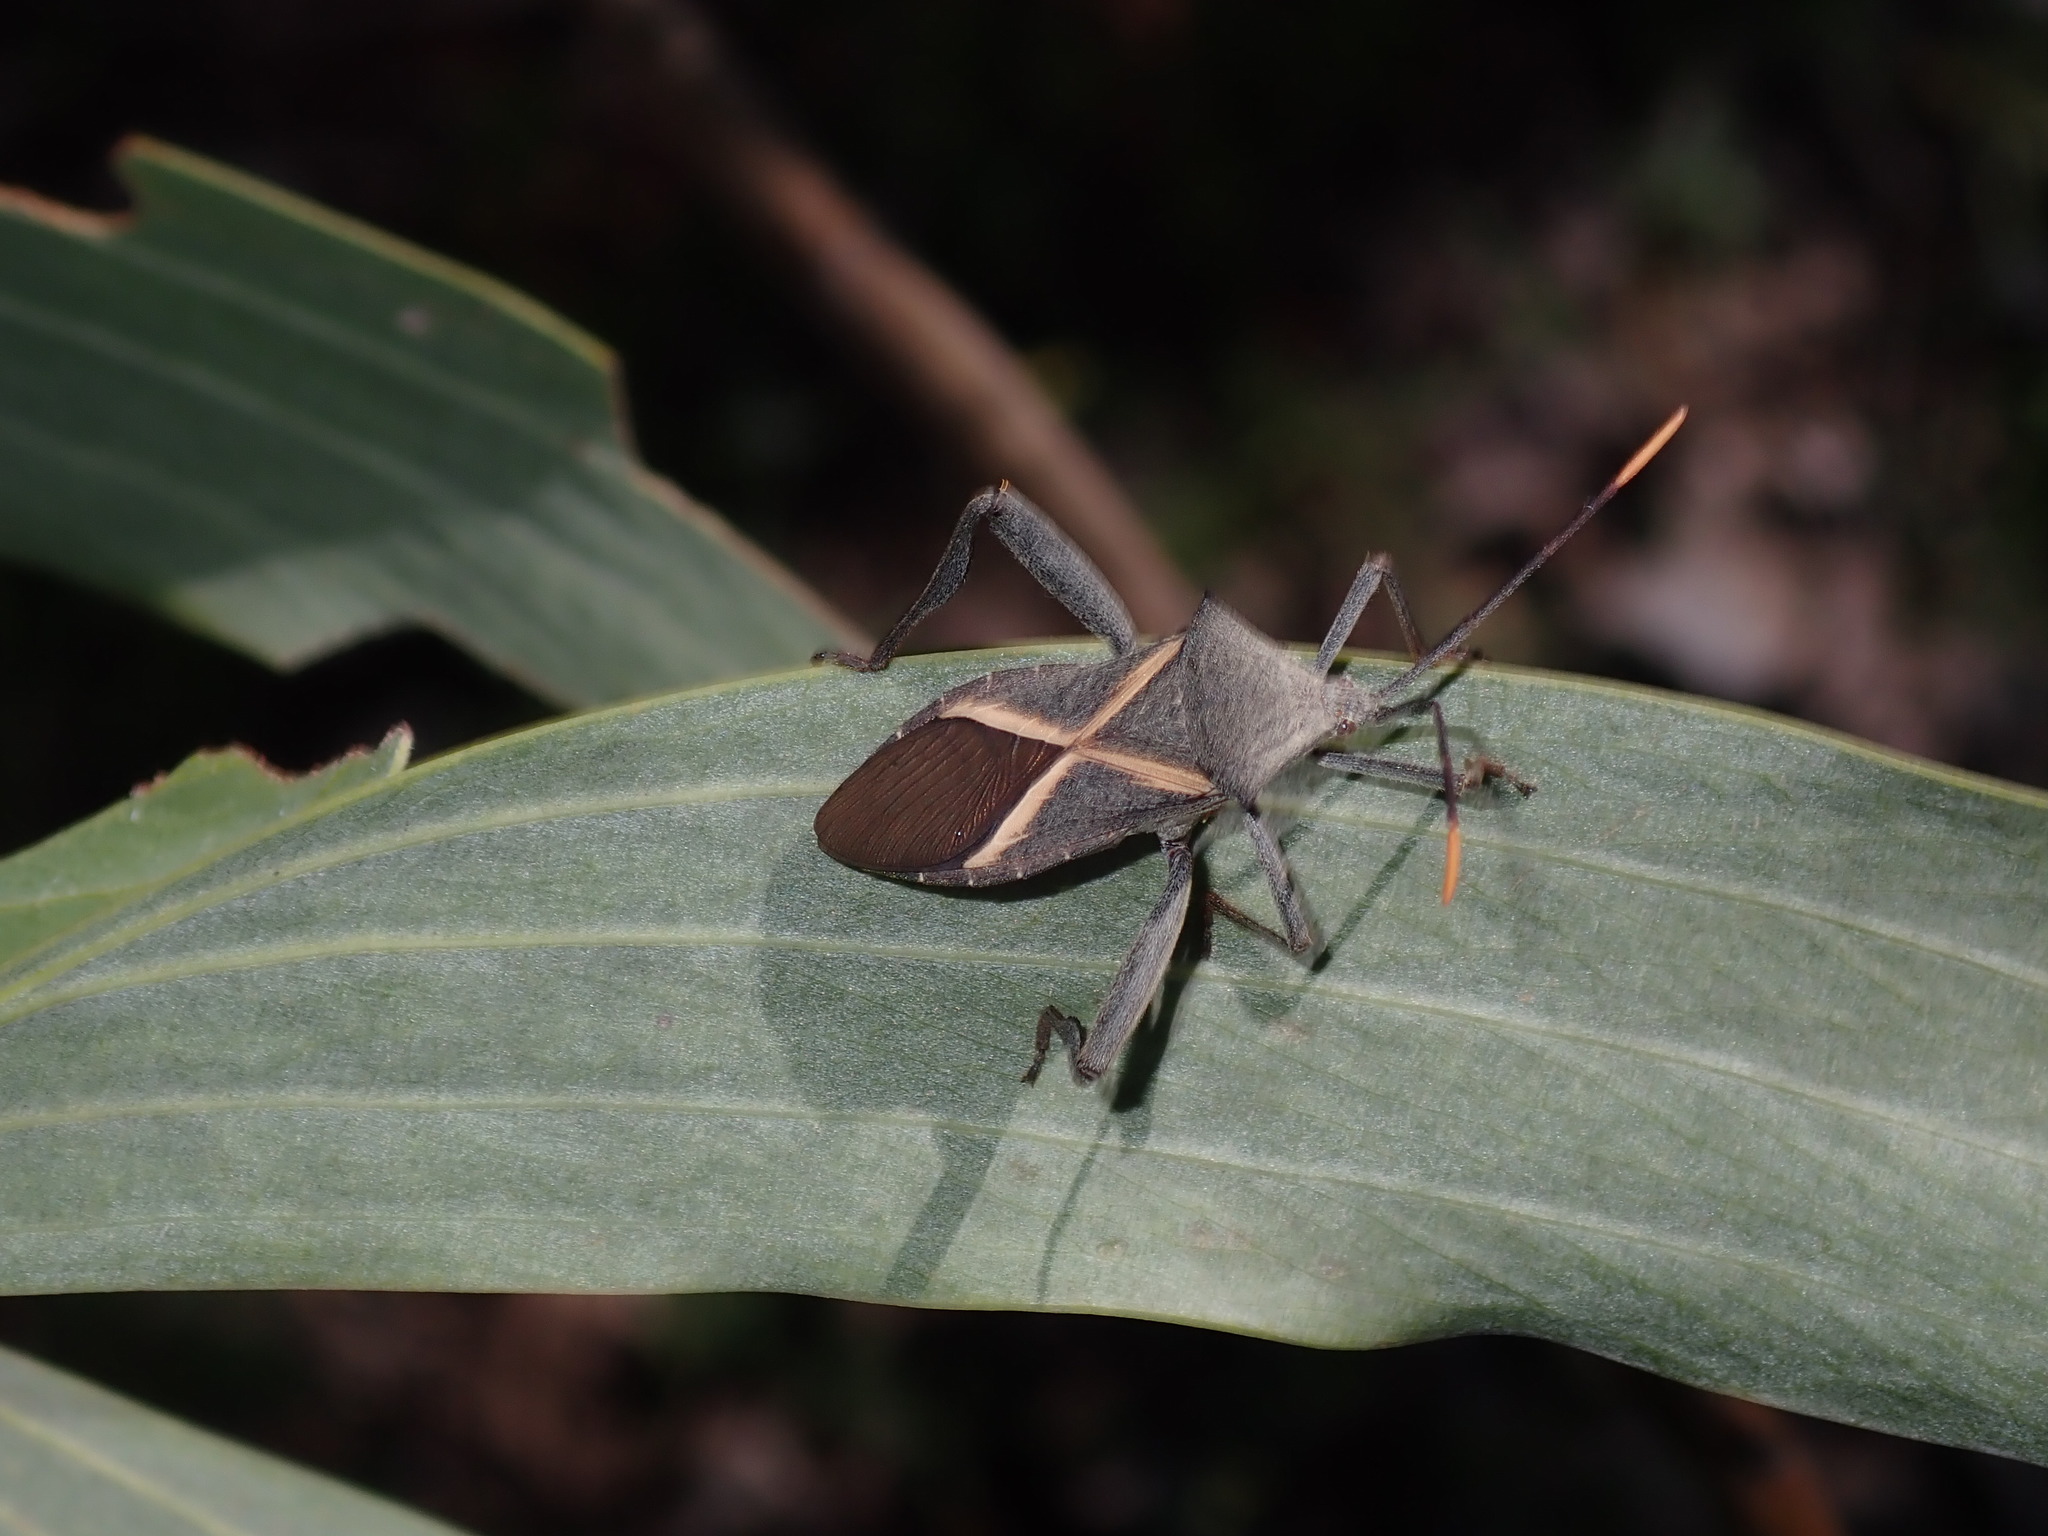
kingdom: Animalia
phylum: Arthropoda
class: Insecta
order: Hemiptera
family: Coreidae
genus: Mictis
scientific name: Mictis profana
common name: Crusader bug
